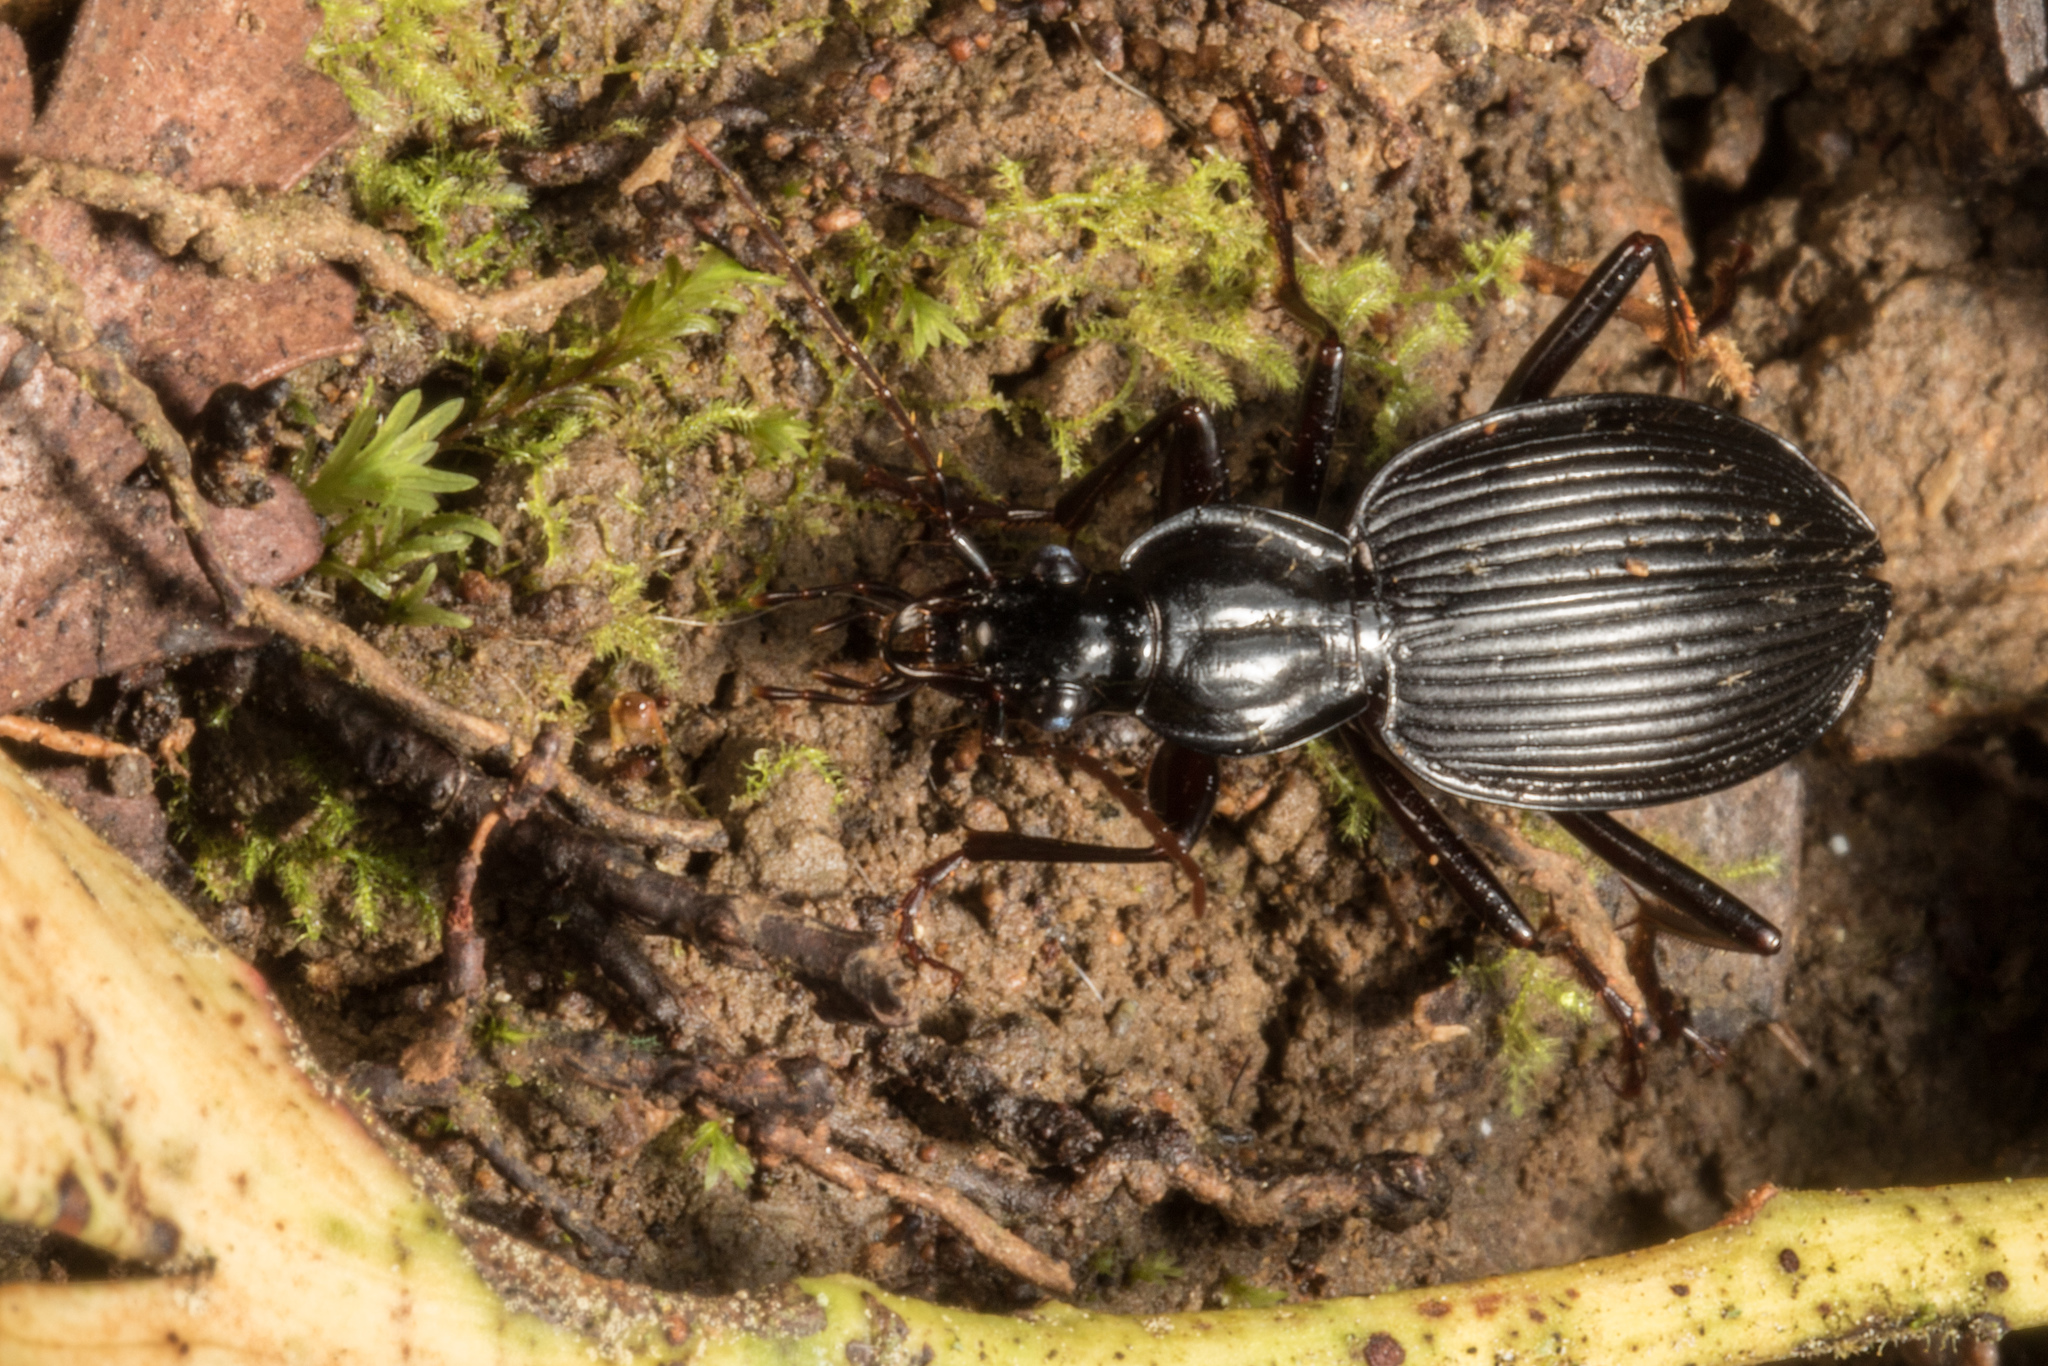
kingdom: Animalia
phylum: Arthropoda
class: Insecta
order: Coleoptera
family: Carabidae
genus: Kiwiplatynus
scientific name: Kiwiplatynus bidens
